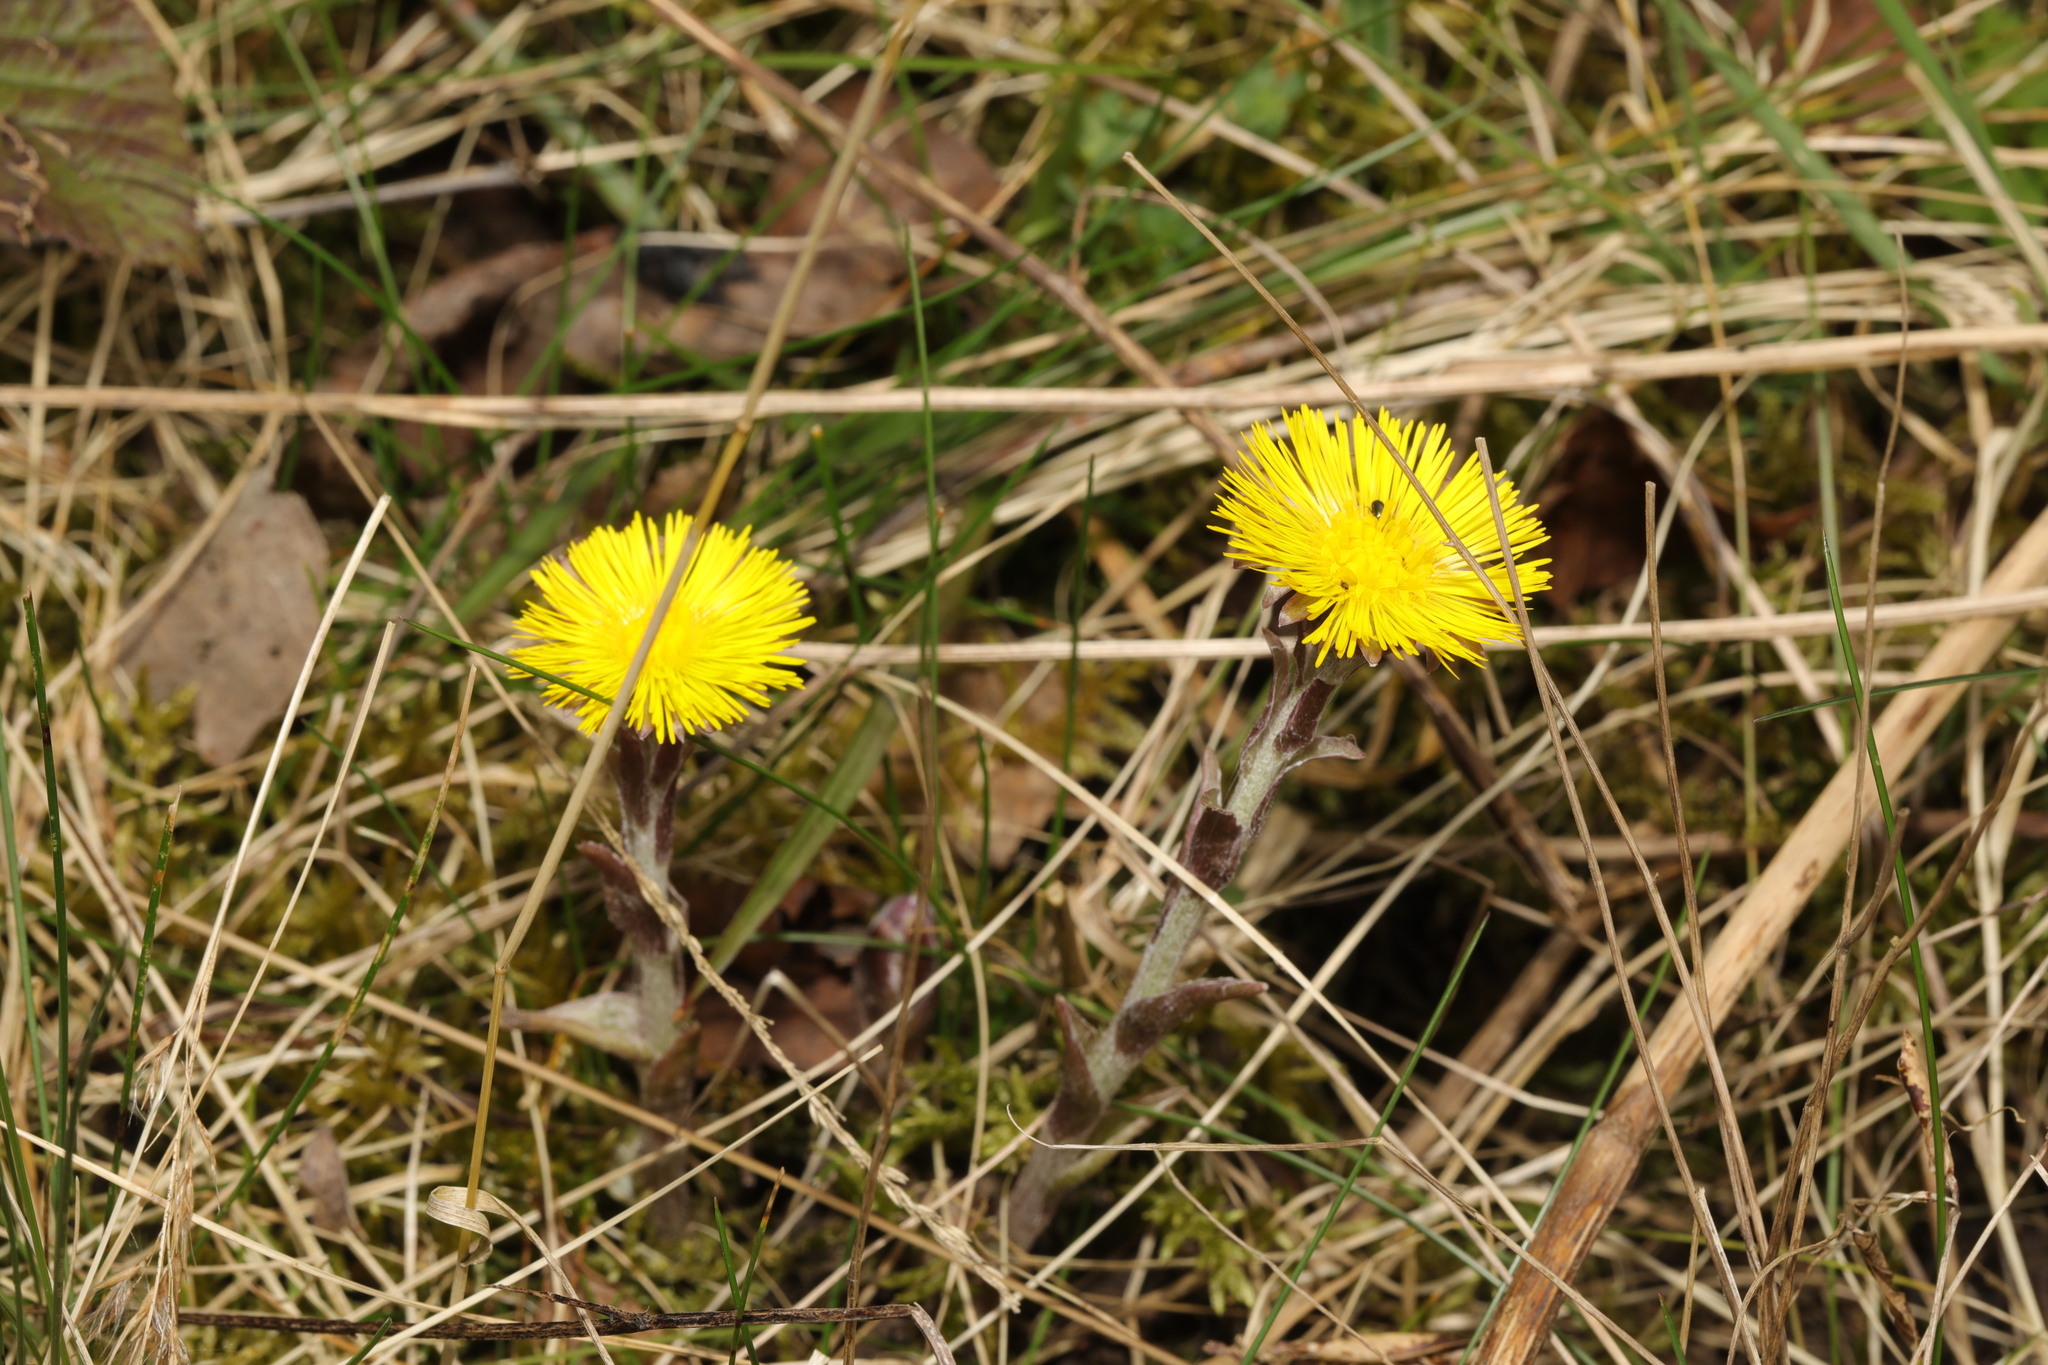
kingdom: Plantae
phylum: Tracheophyta
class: Magnoliopsida
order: Asterales
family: Asteraceae
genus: Tussilago
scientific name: Tussilago farfara
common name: Coltsfoot
